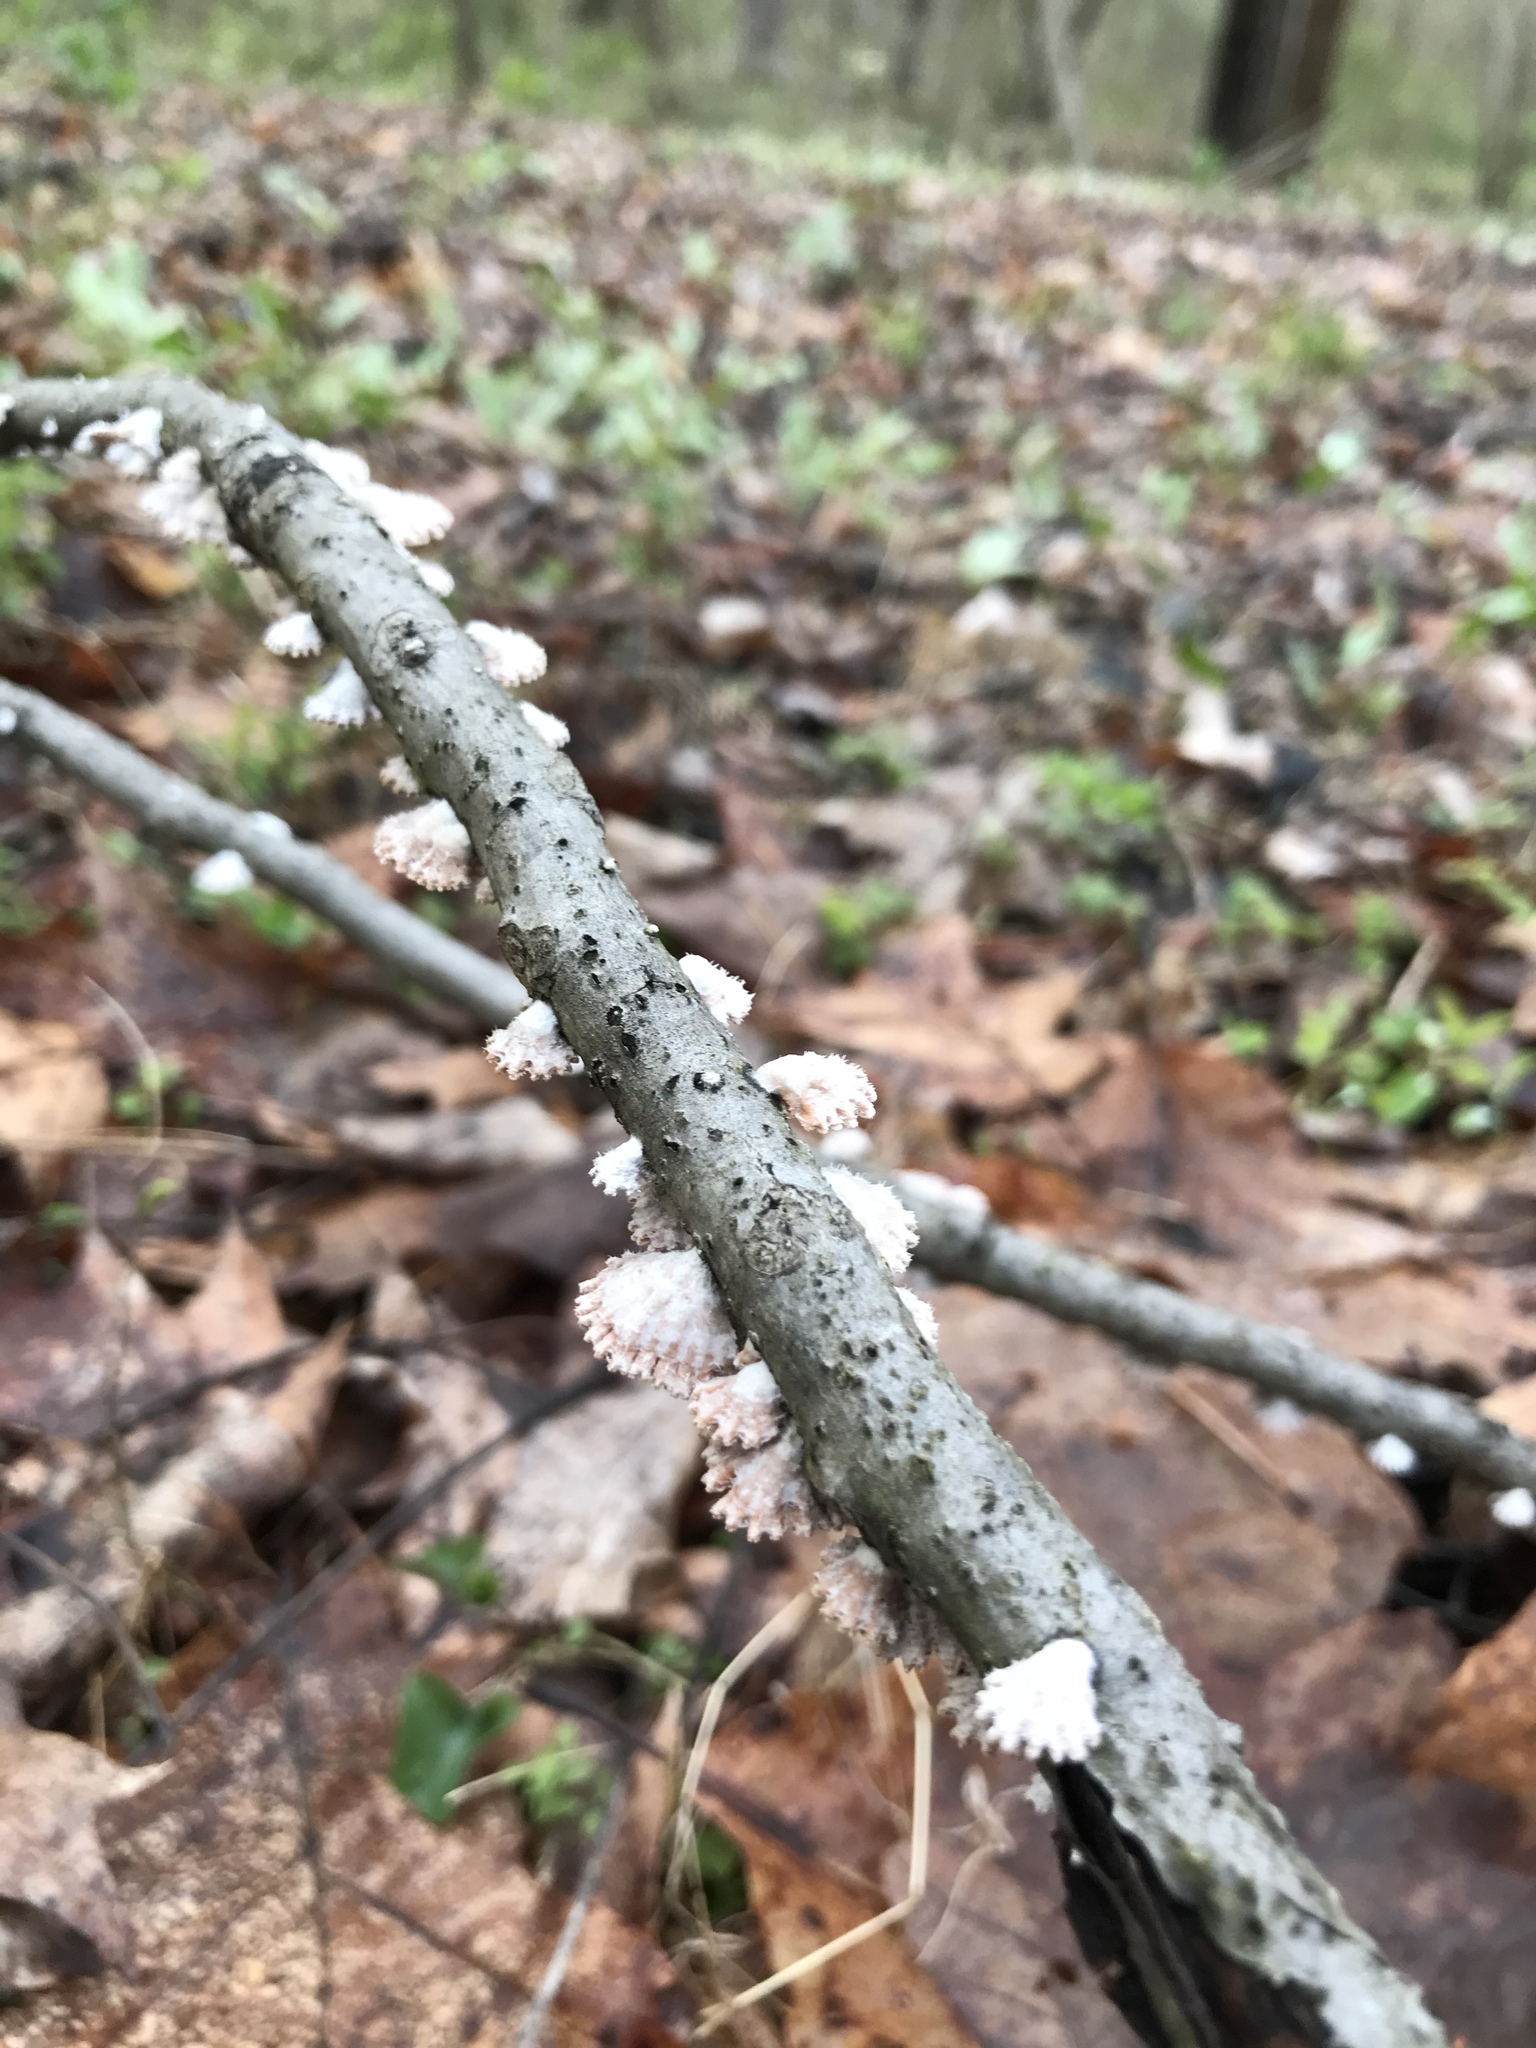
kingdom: Fungi
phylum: Basidiomycota
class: Agaricomycetes
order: Agaricales
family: Schizophyllaceae
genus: Schizophyllum
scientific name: Schizophyllum commune
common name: Common porecrust
